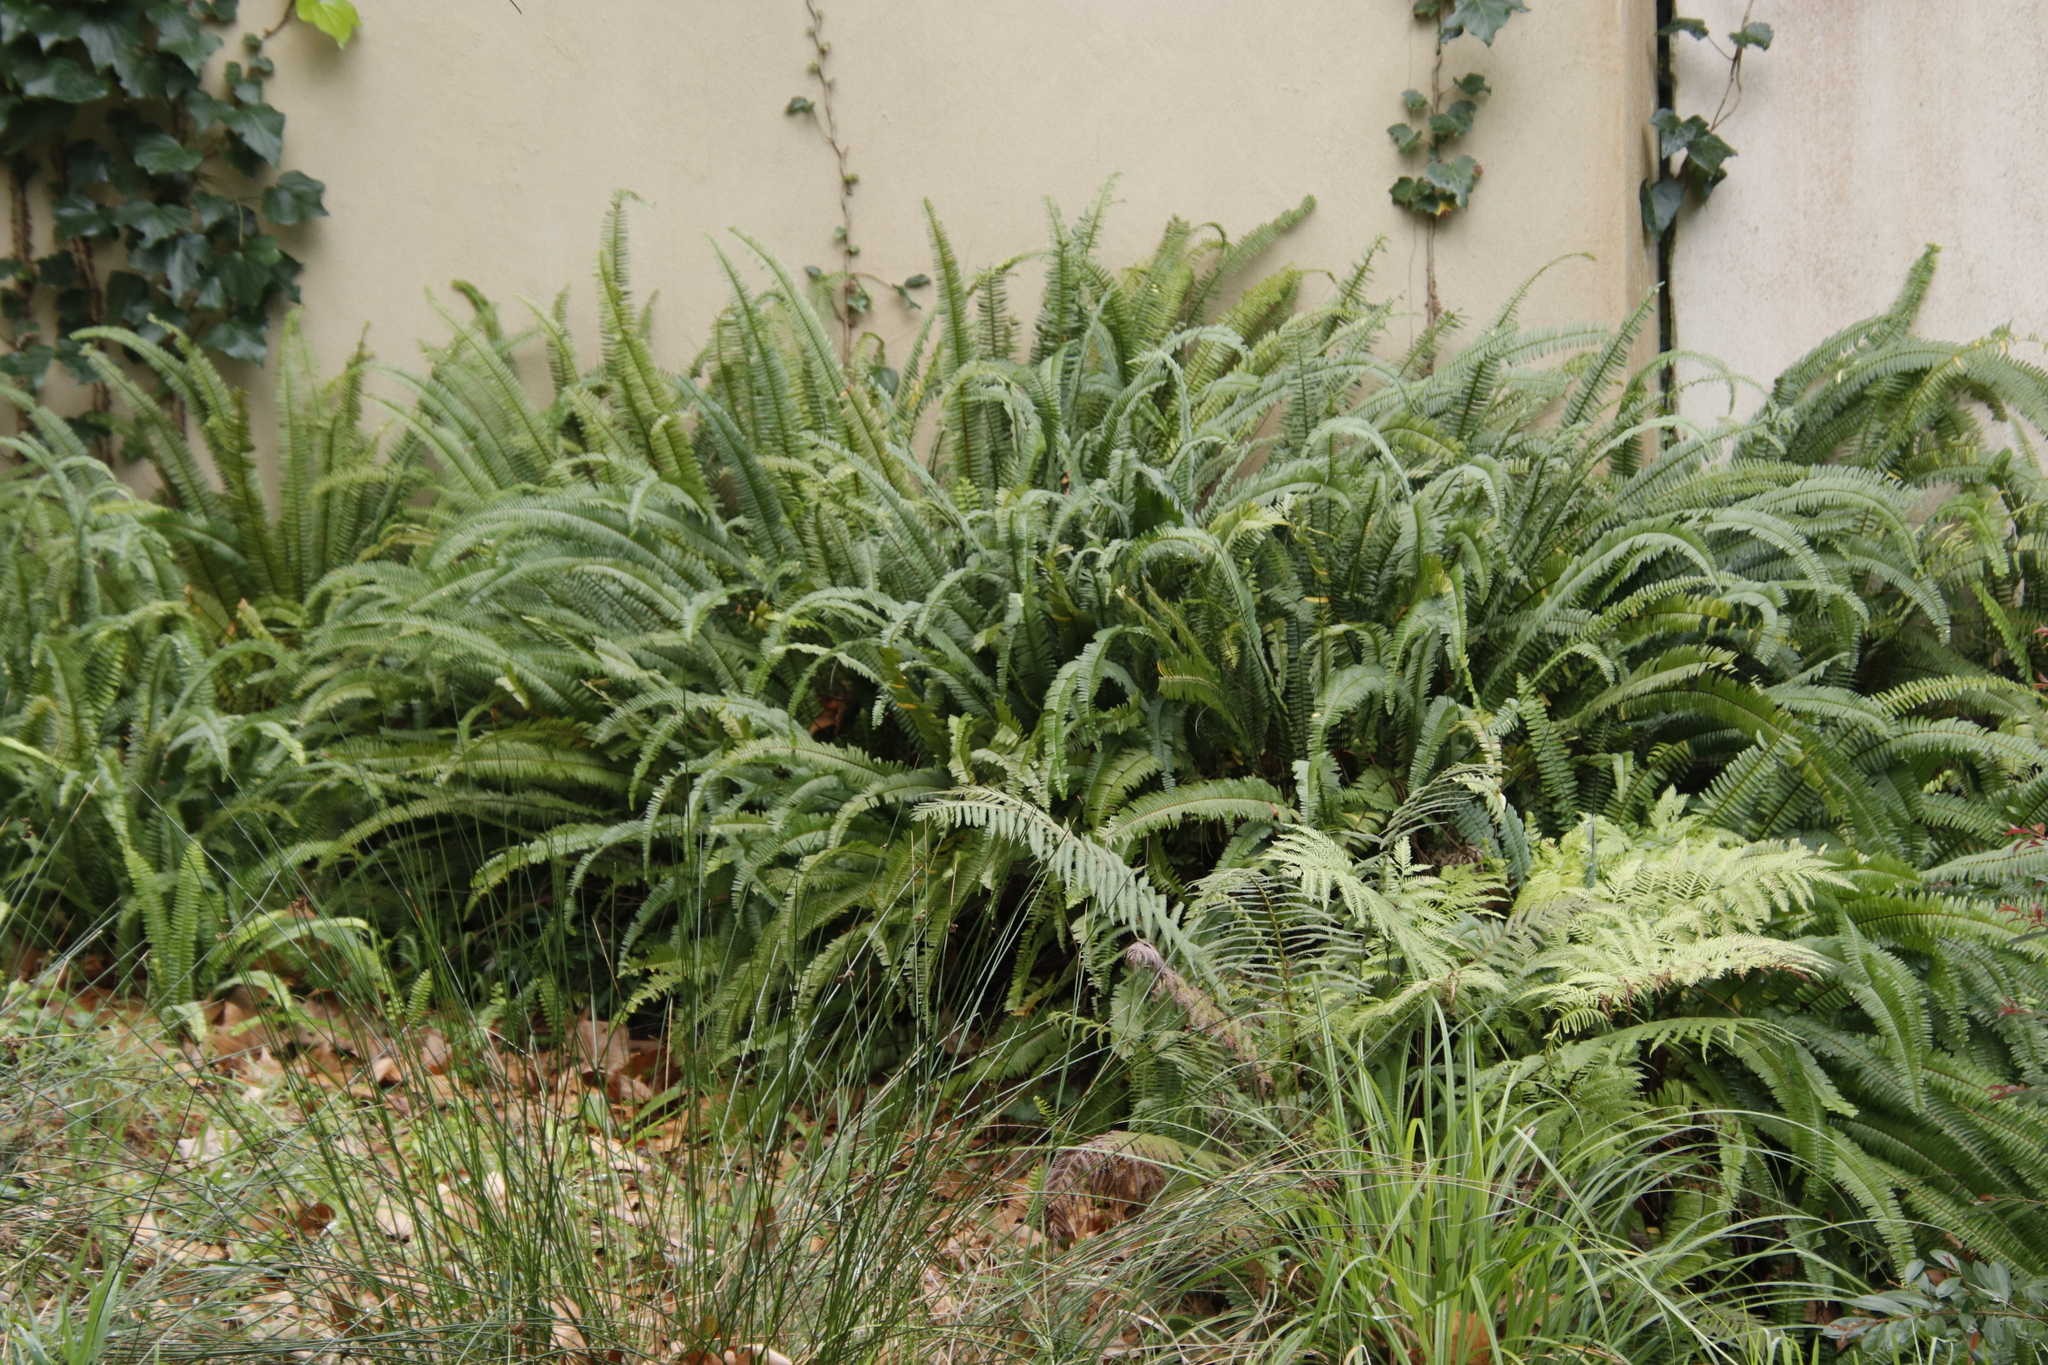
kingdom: Plantae
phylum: Tracheophyta
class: Polypodiopsida
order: Polypodiales
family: Nephrolepidaceae
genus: Nephrolepis
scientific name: Nephrolepis cordifolia
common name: Narrow swordfern
